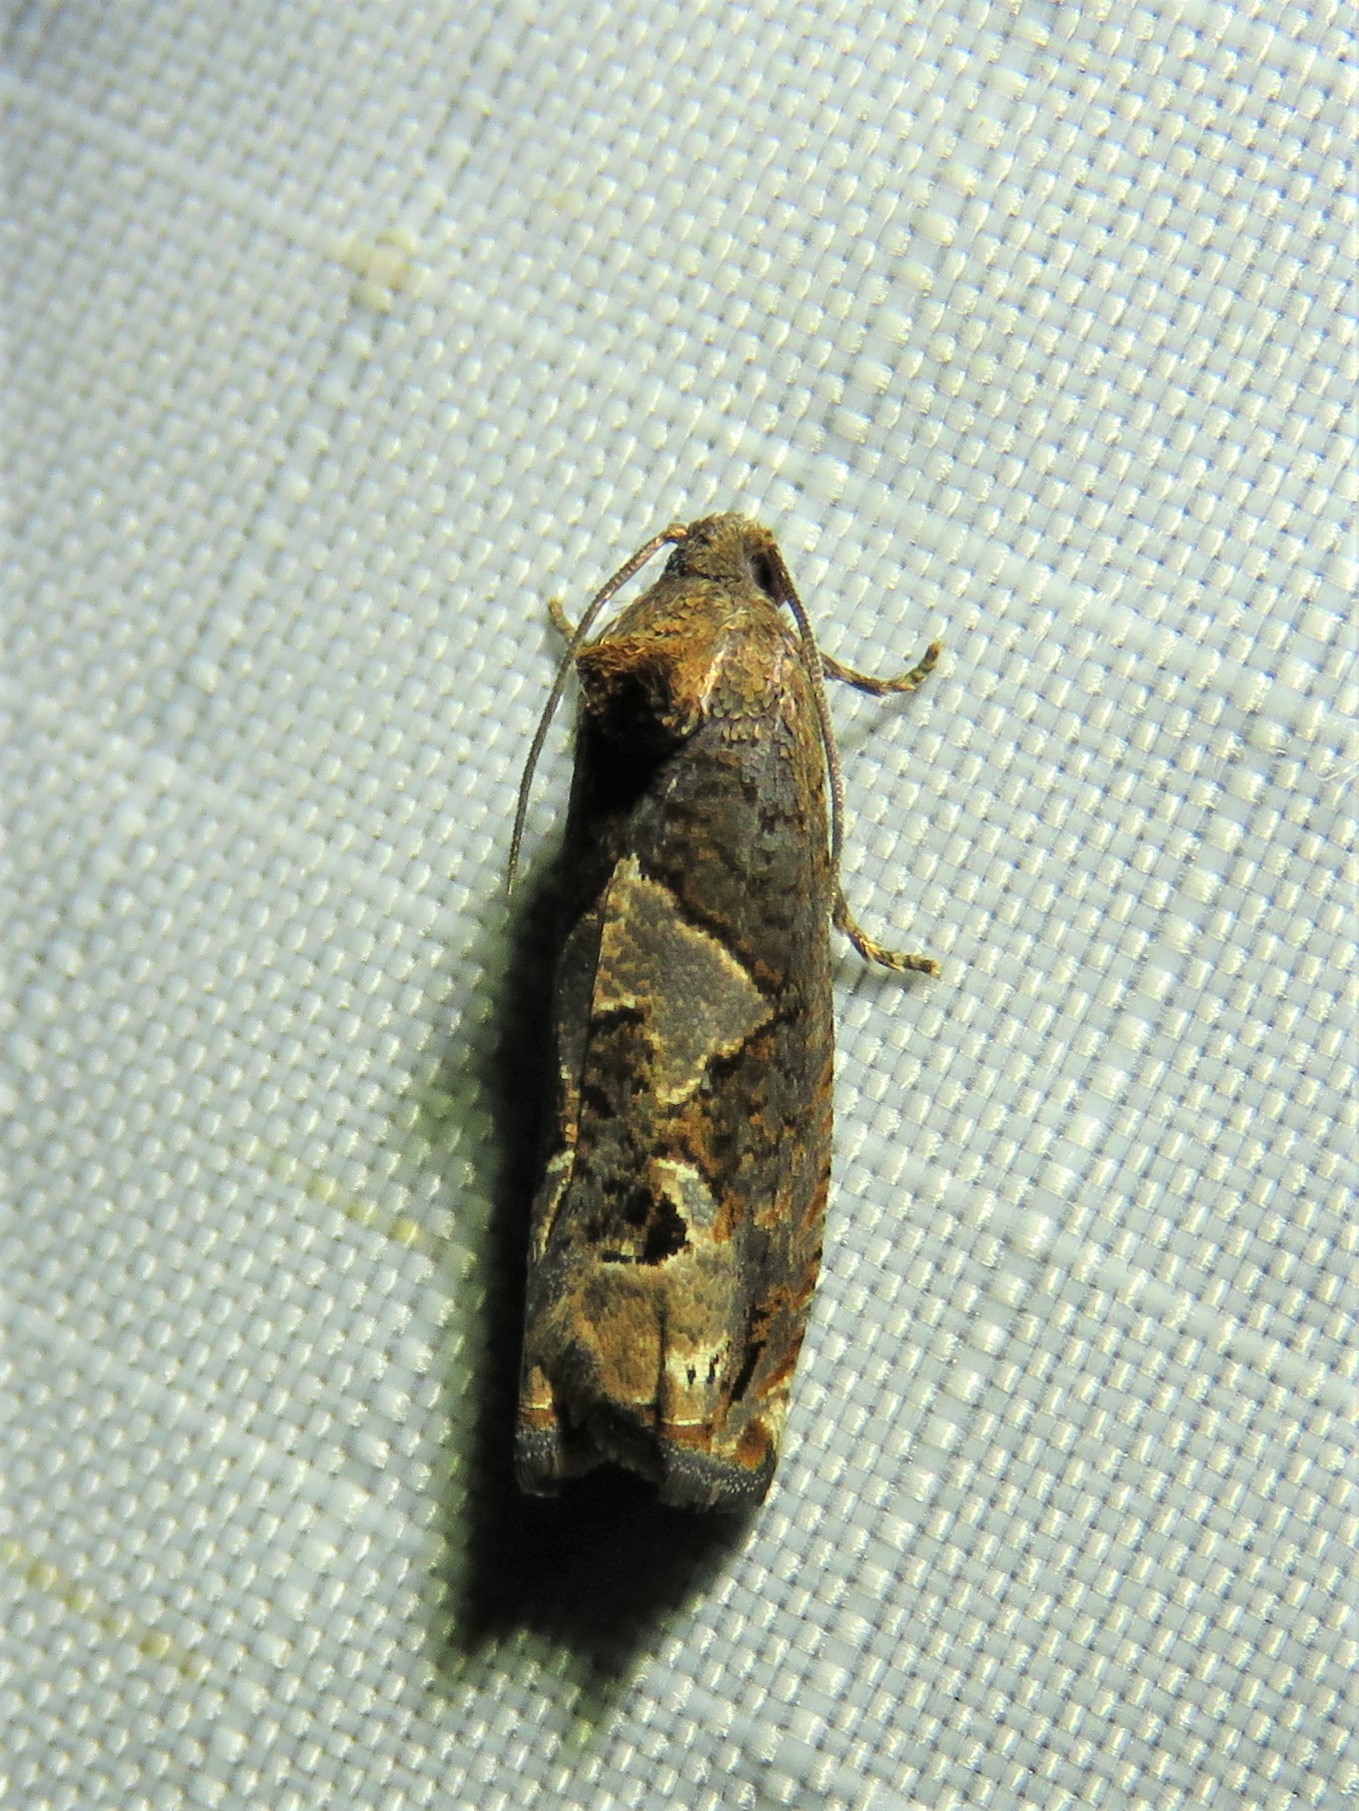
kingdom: Animalia
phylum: Arthropoda
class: Insecta
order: Lepidoptera
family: Tortricidae
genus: Epiblema
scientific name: Epiblema otiosana
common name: Bidens borer moth
